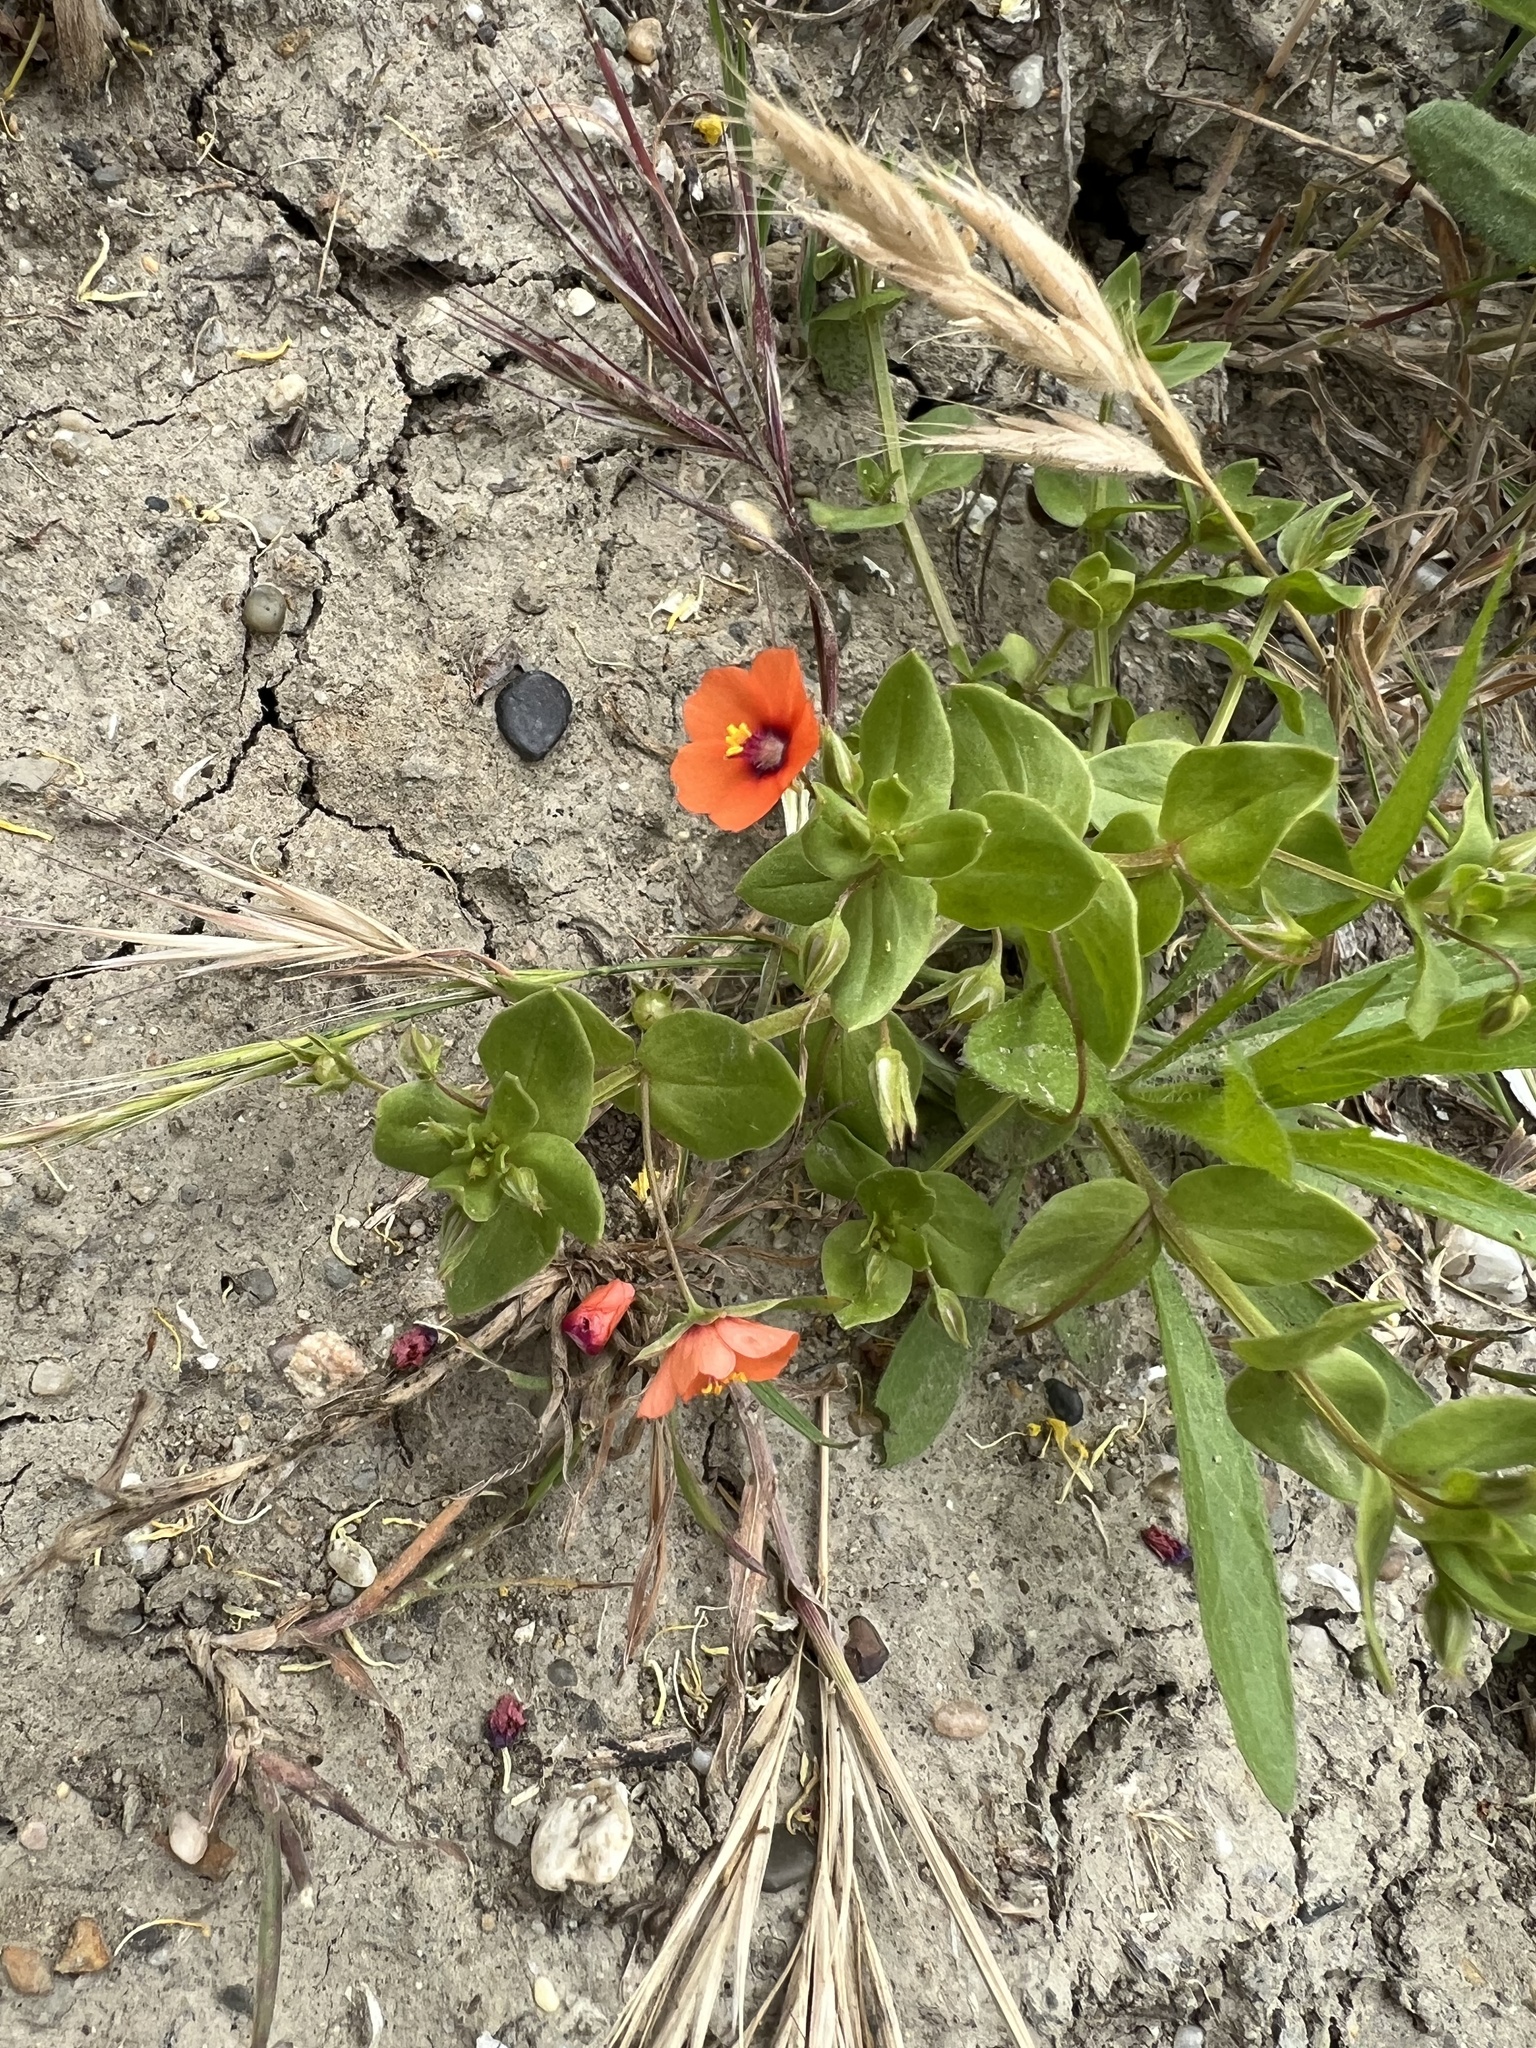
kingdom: Plantae
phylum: Tracheophyta
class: Magnoliopsida
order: Ericales
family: Primulaceae
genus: Lysimachia
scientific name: Lysimachia arvensis
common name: Scarlet pimpernel
